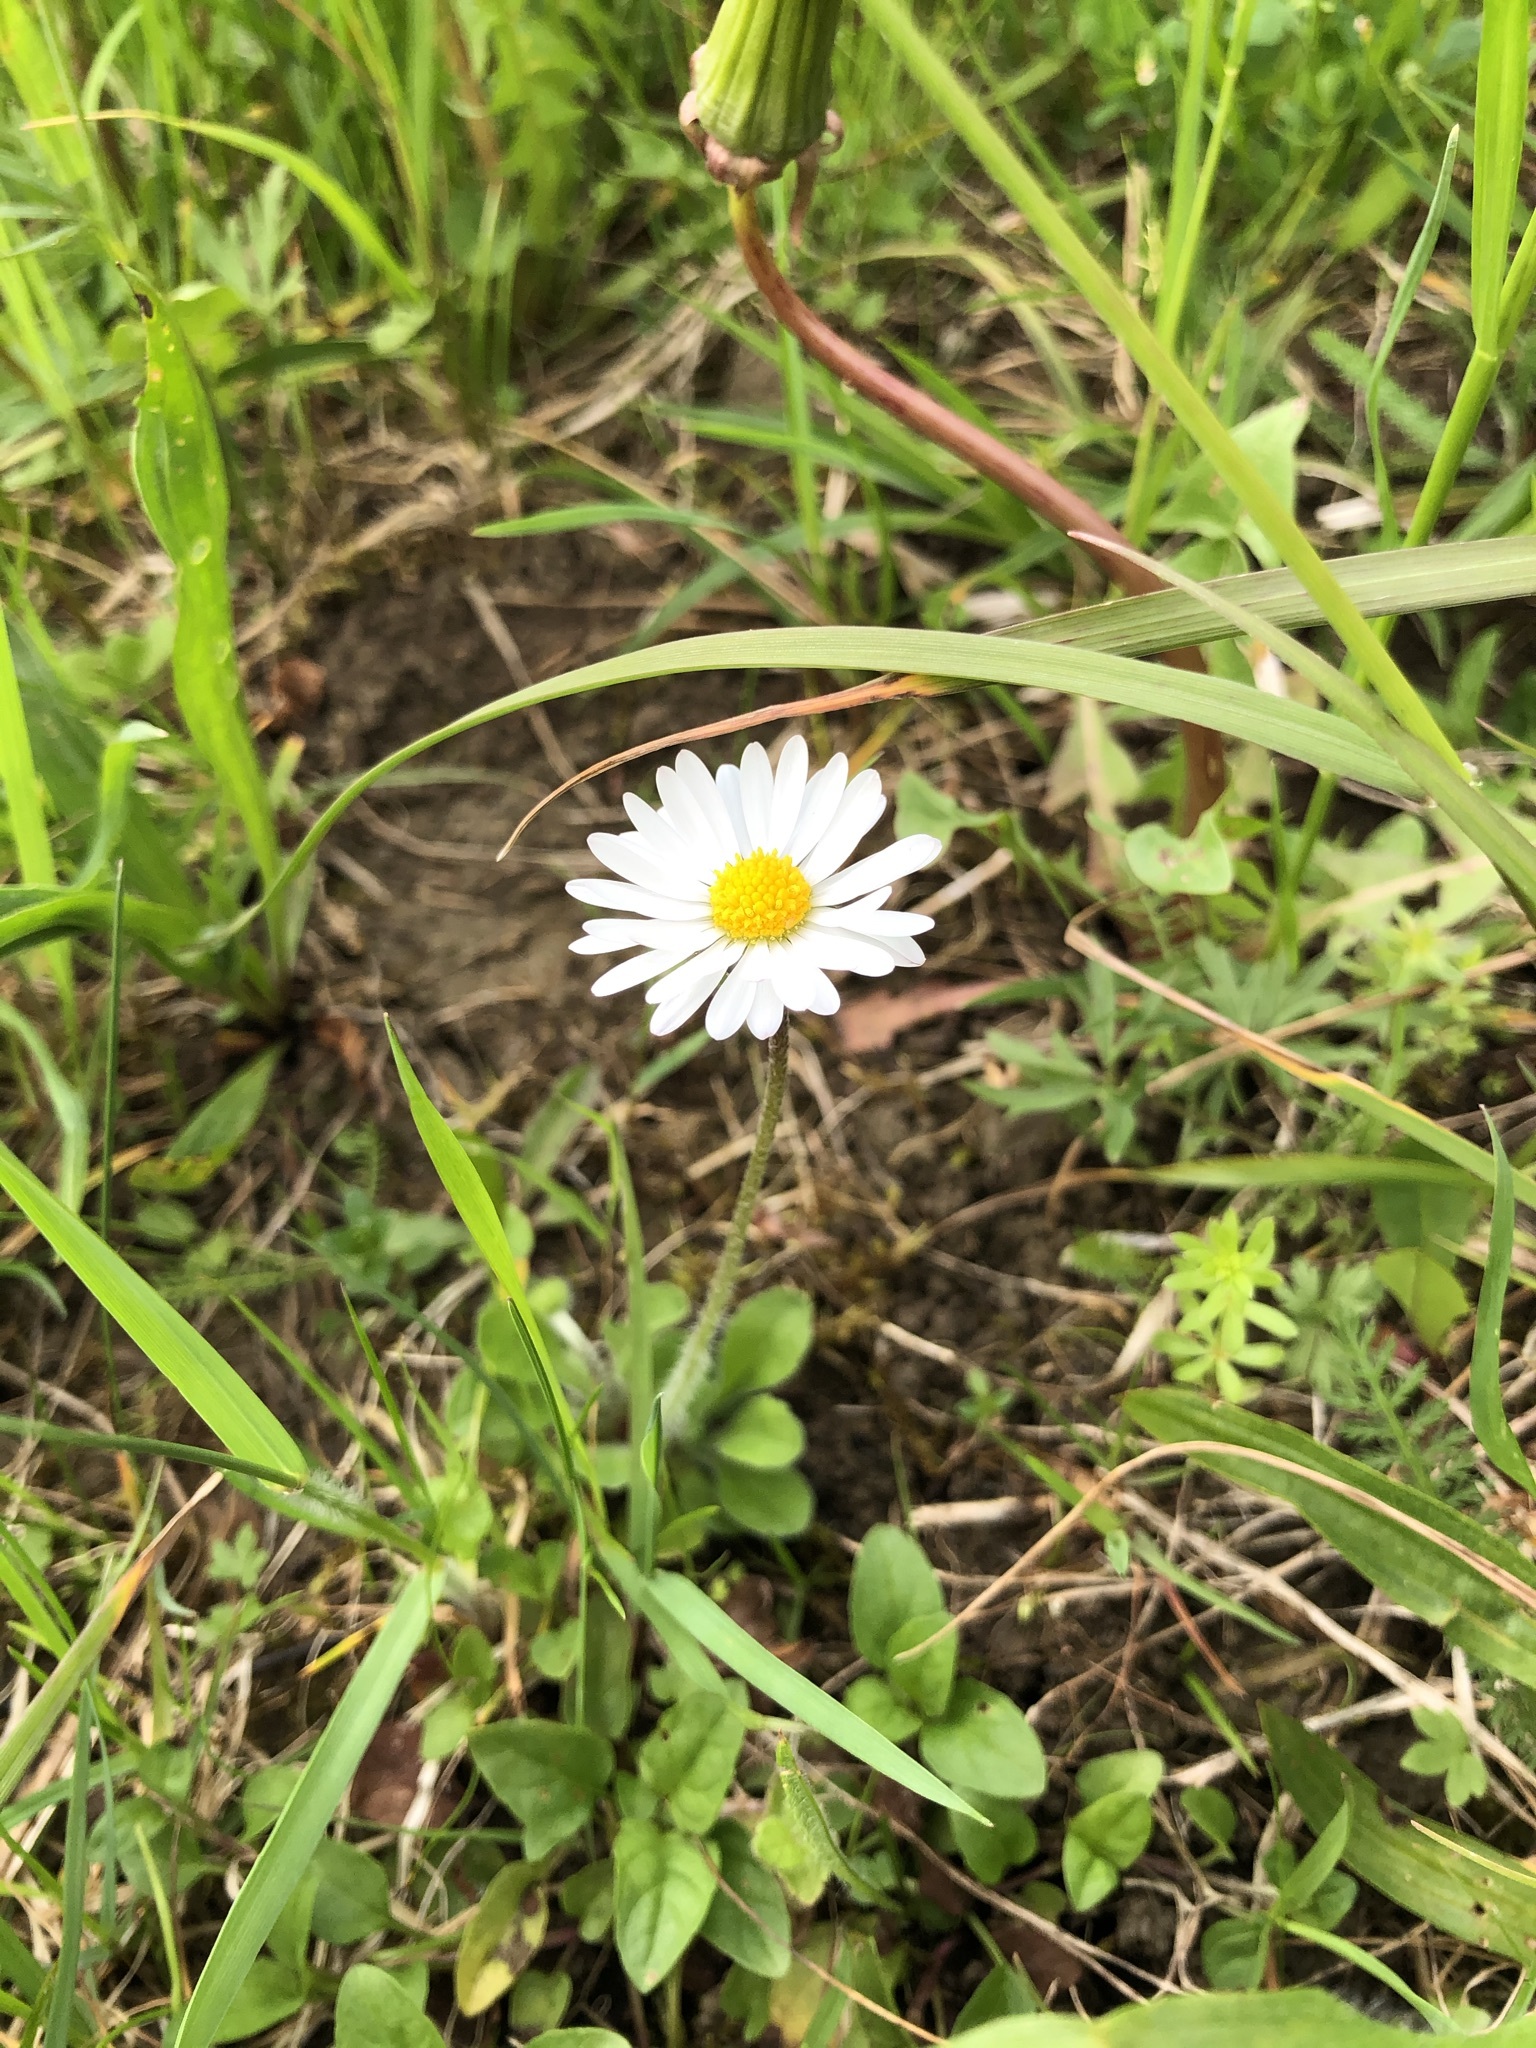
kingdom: Plantae
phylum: Tracheophyta
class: Magnoliopsida
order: Asterales
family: Asteraceae
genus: Bellis
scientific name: Bellis perennis
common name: Lawndaisy
